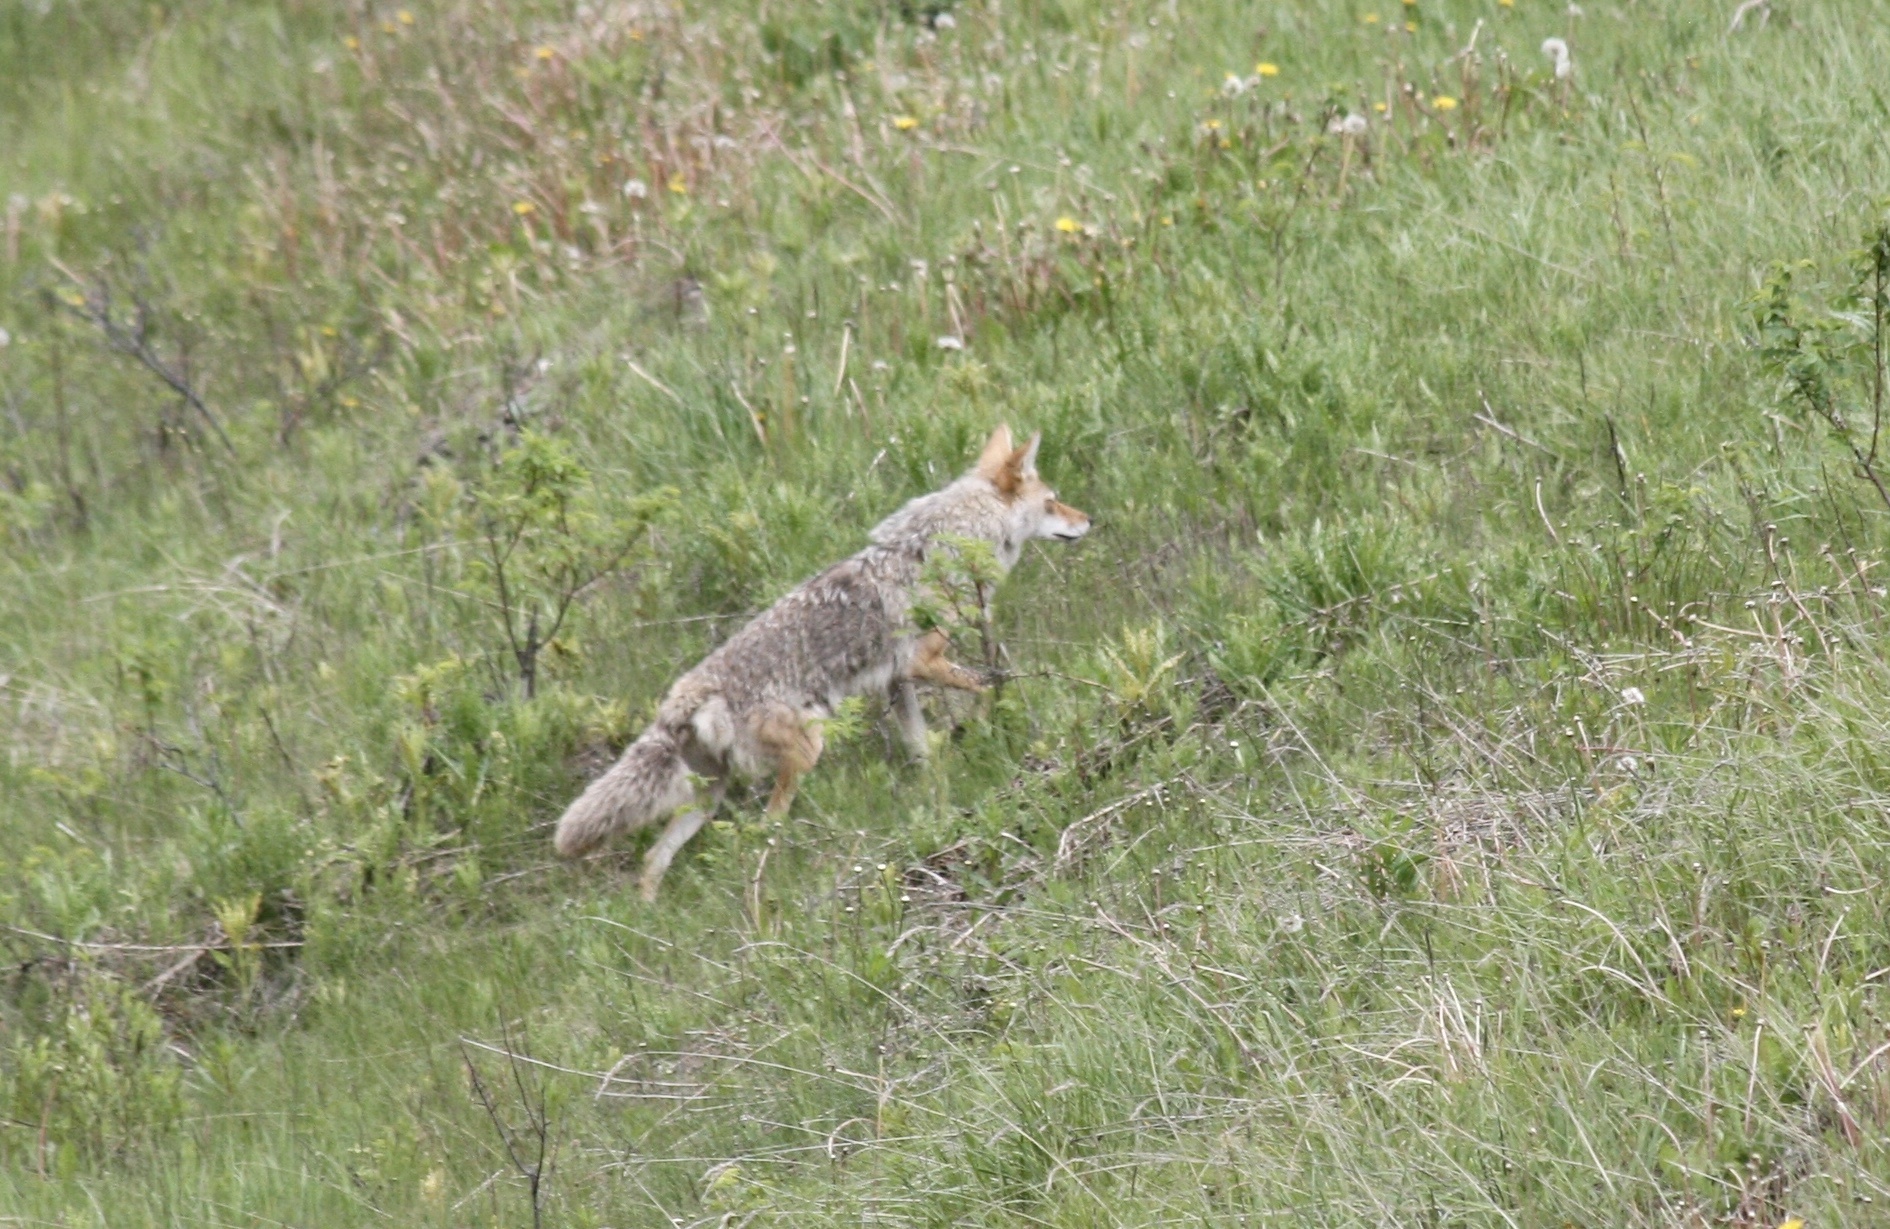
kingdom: Animalia
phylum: Chordata
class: Mammalia
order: Carnivora
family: Canidae
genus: Canis
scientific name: Canis latrans
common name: Coyote
